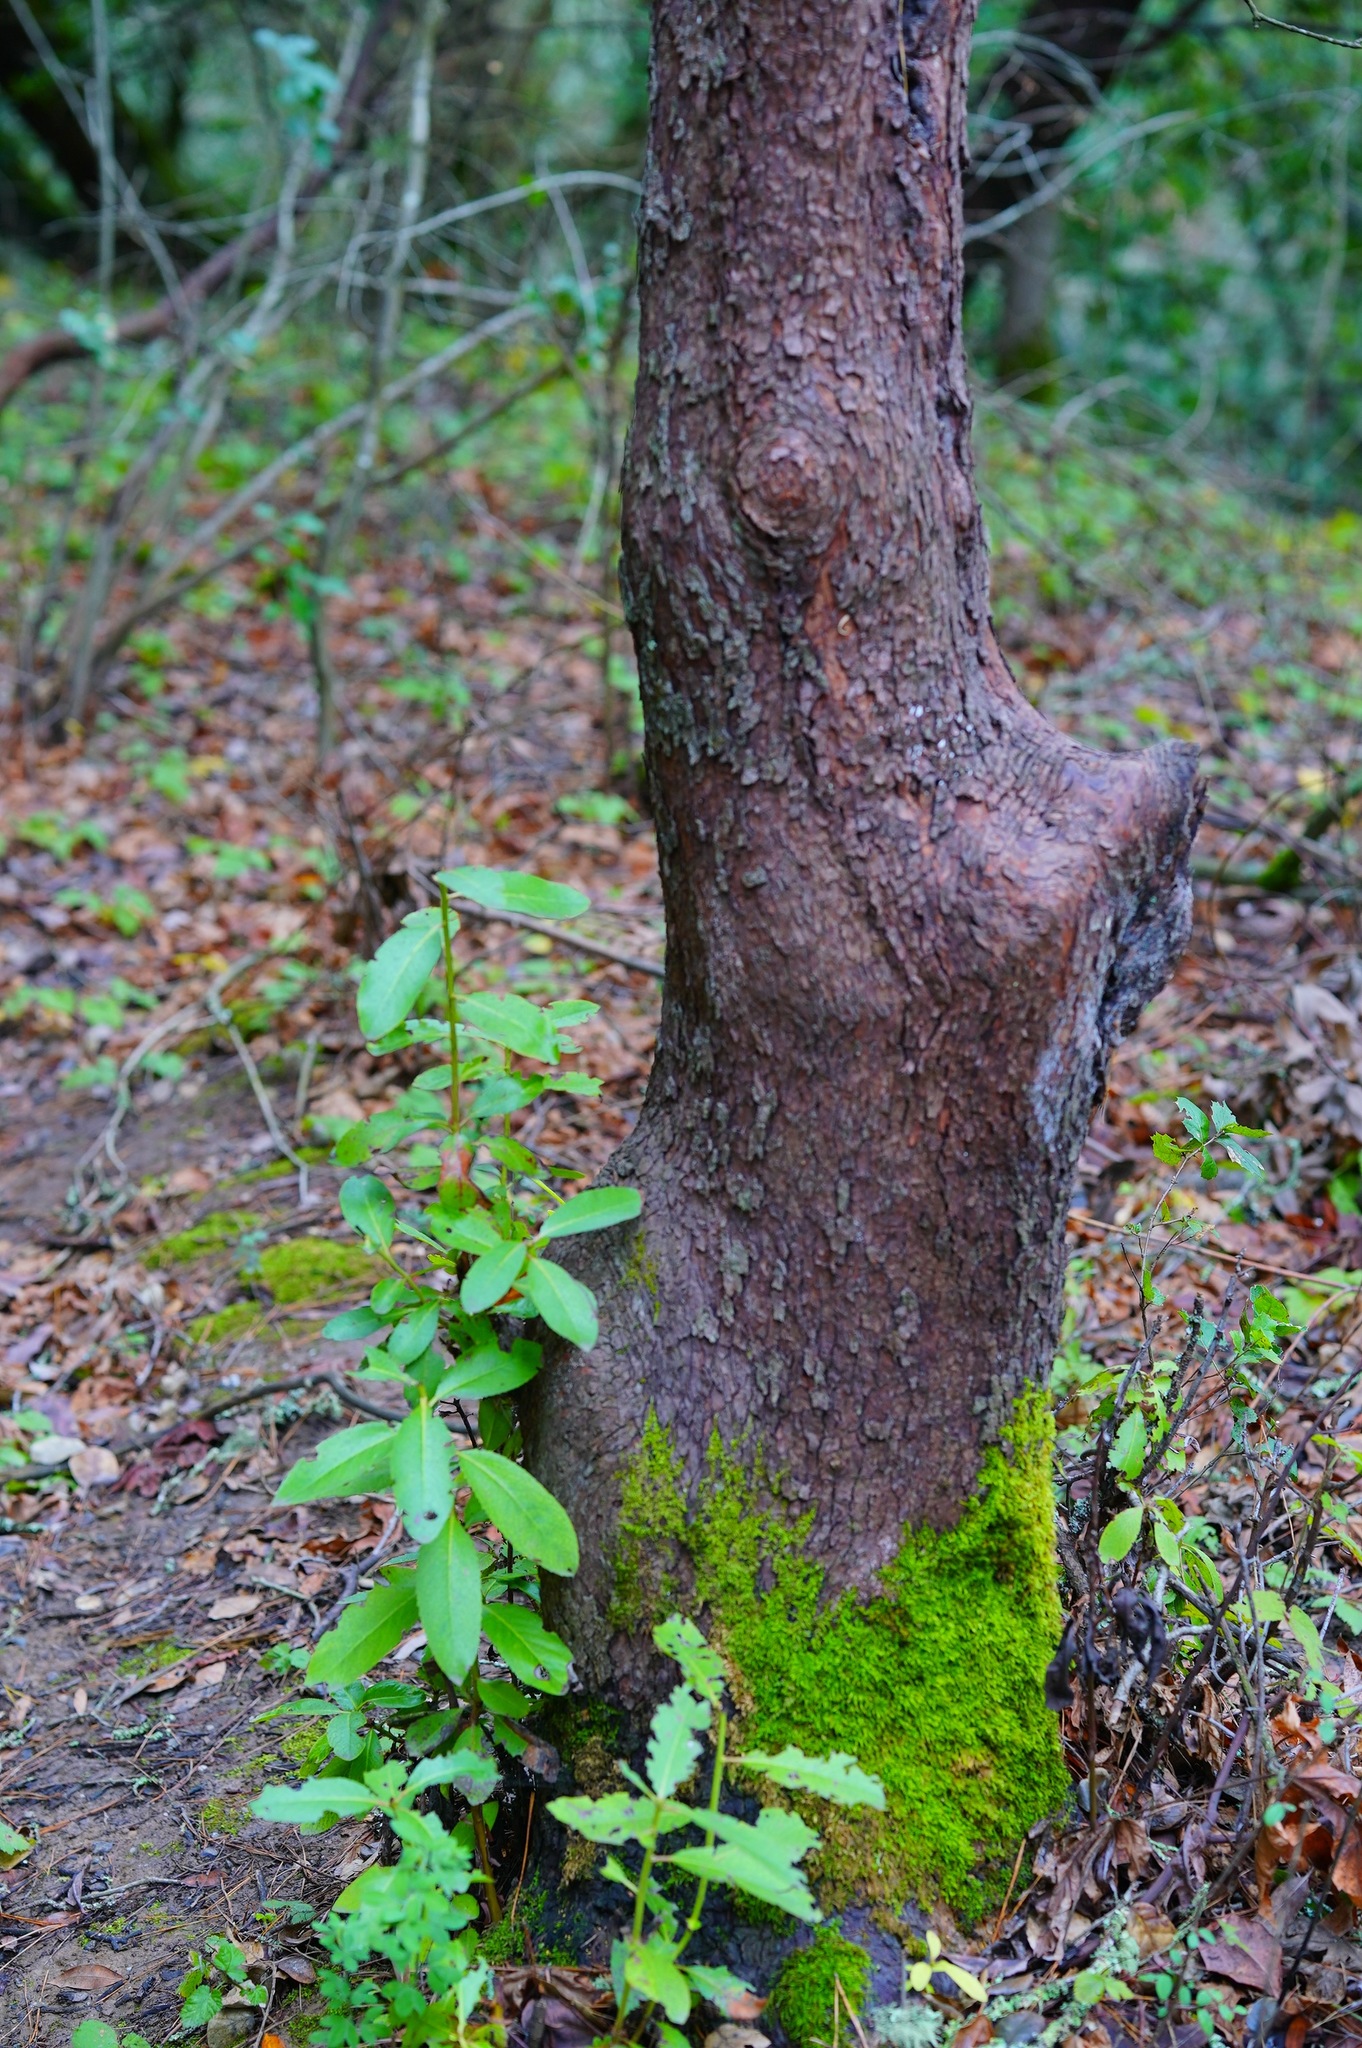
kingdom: Plantae
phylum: Tracheophyta
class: Magnoliopsida
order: Ericales
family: Ericaceae
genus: Arbutus
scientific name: Arbutus menziesii
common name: Pacific madrone
